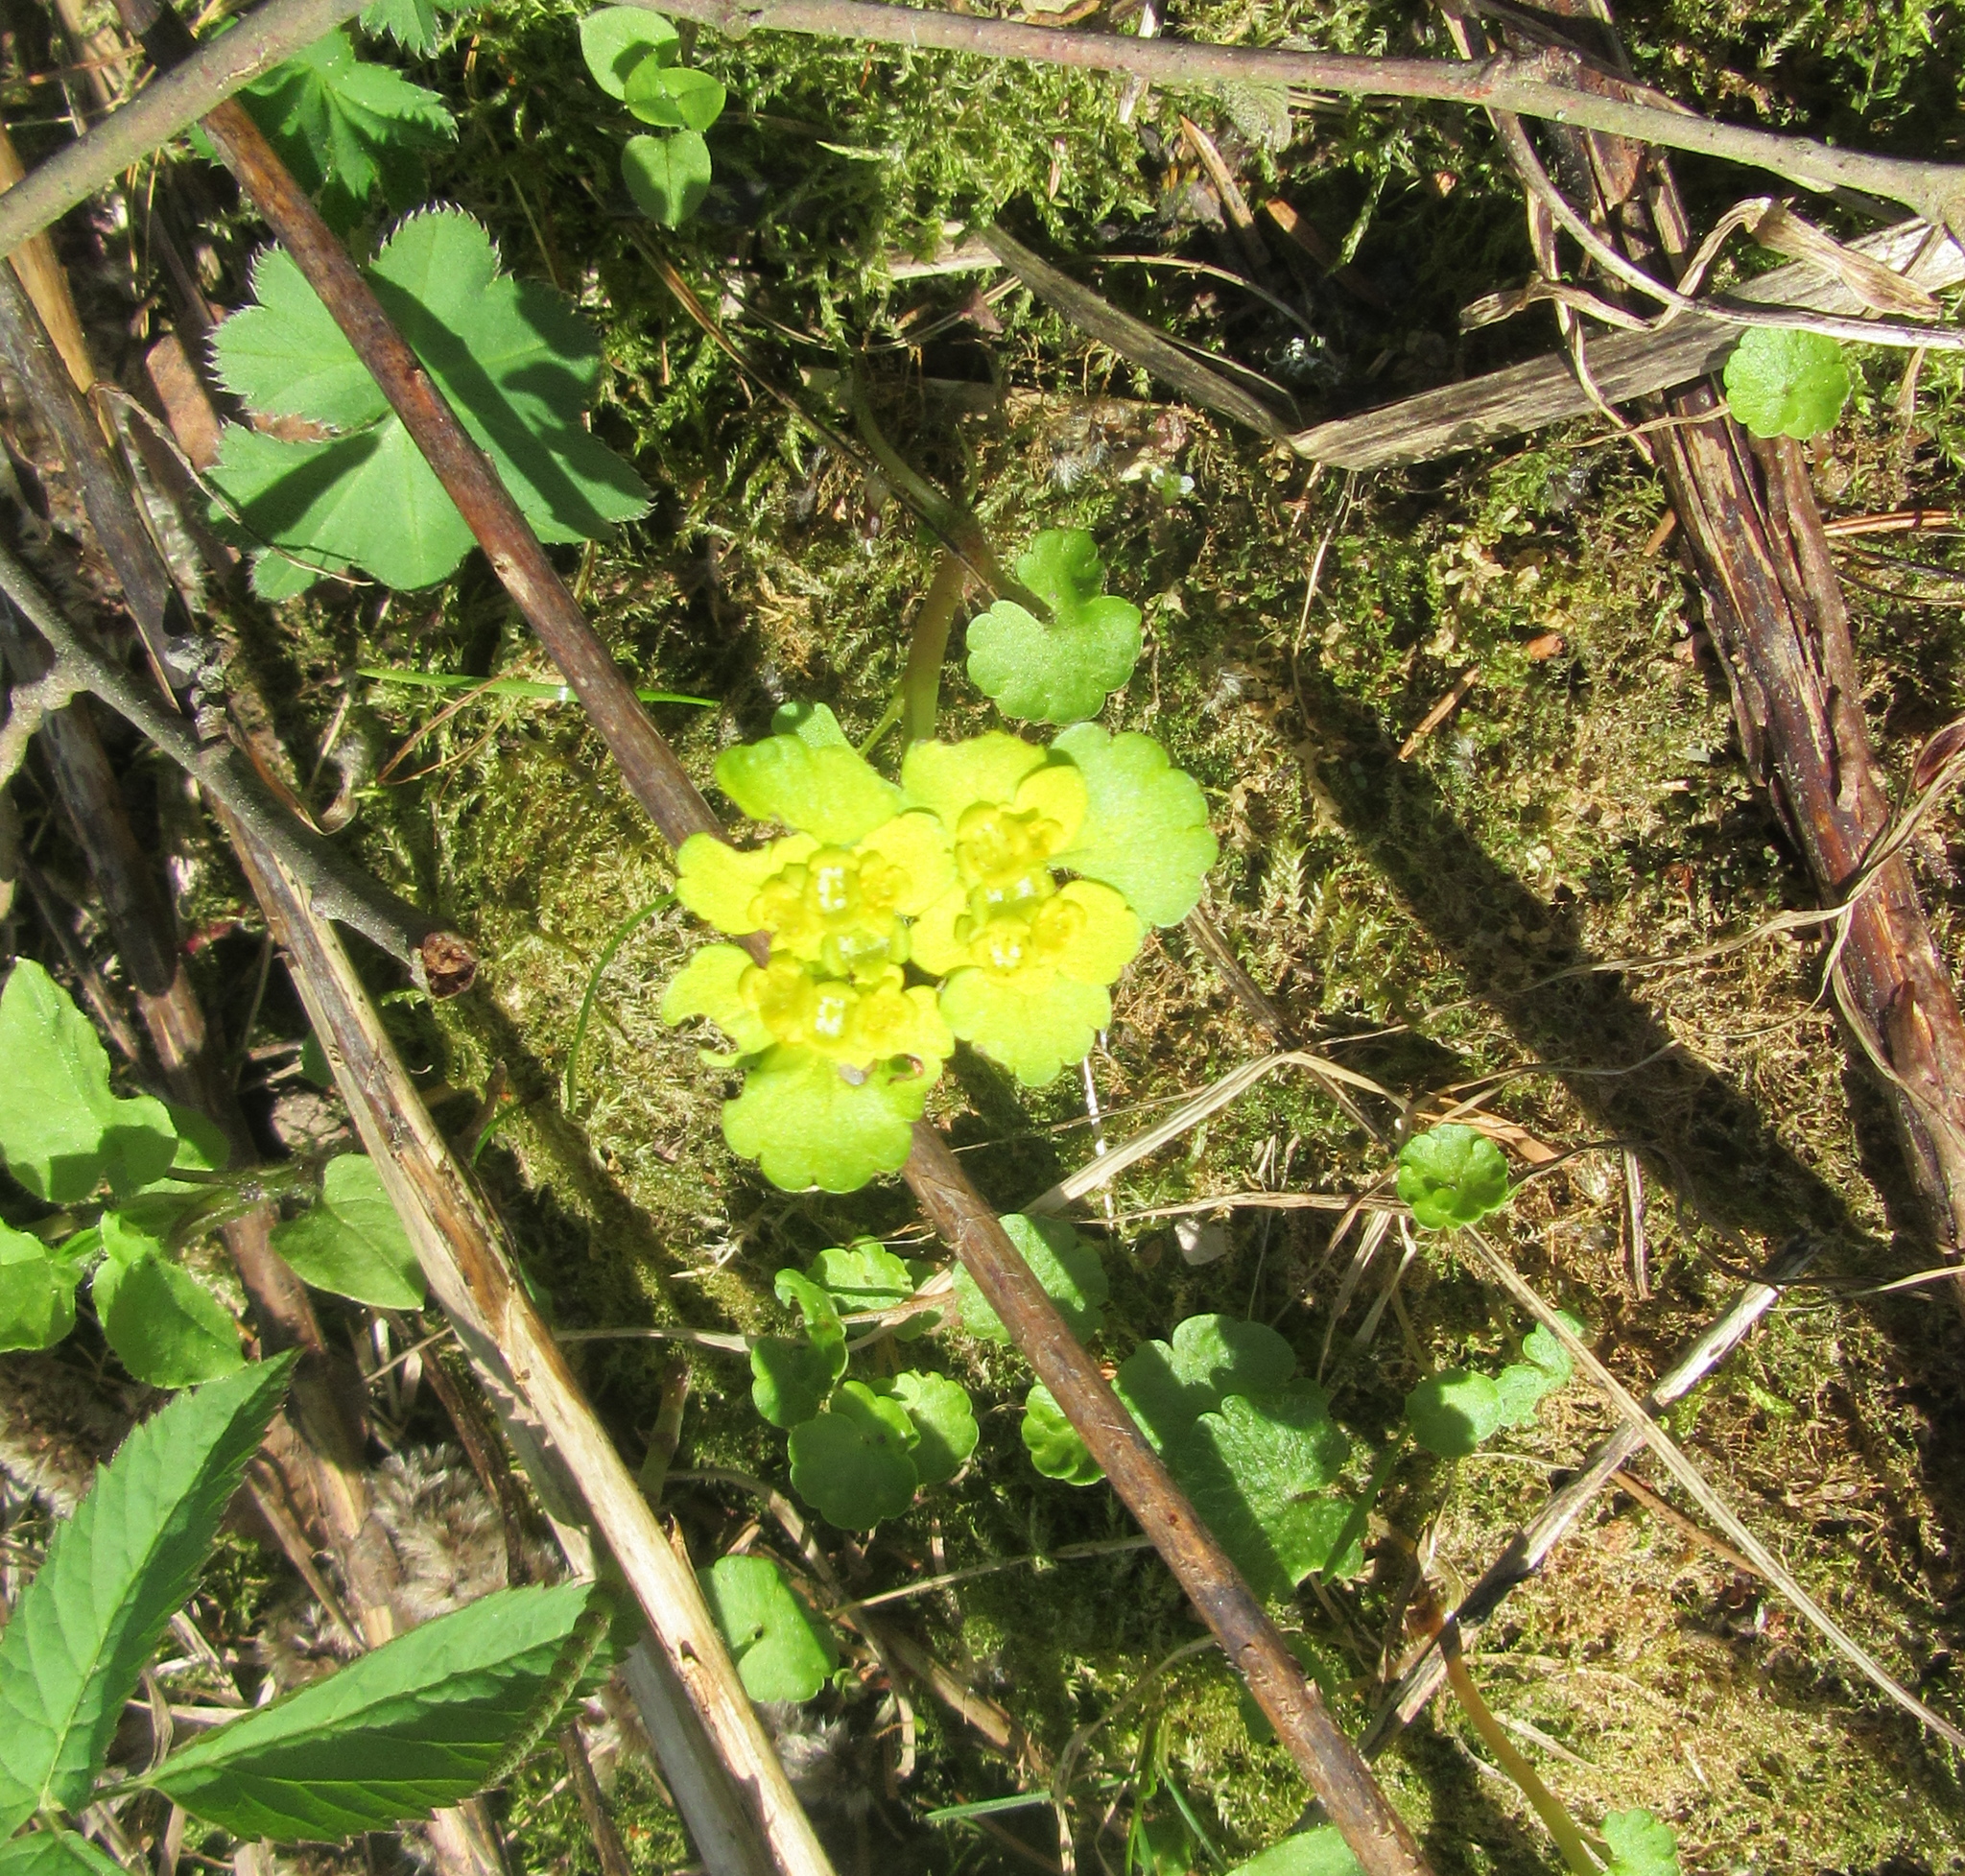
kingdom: Plantae
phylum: Tracheophyta
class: Magnoliopsida
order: Saxifragales
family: Saxifragaceae
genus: Chrysosplenium
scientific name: Chrysosplenium alternifolium
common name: Alternate-leaved golden-saxifrage
